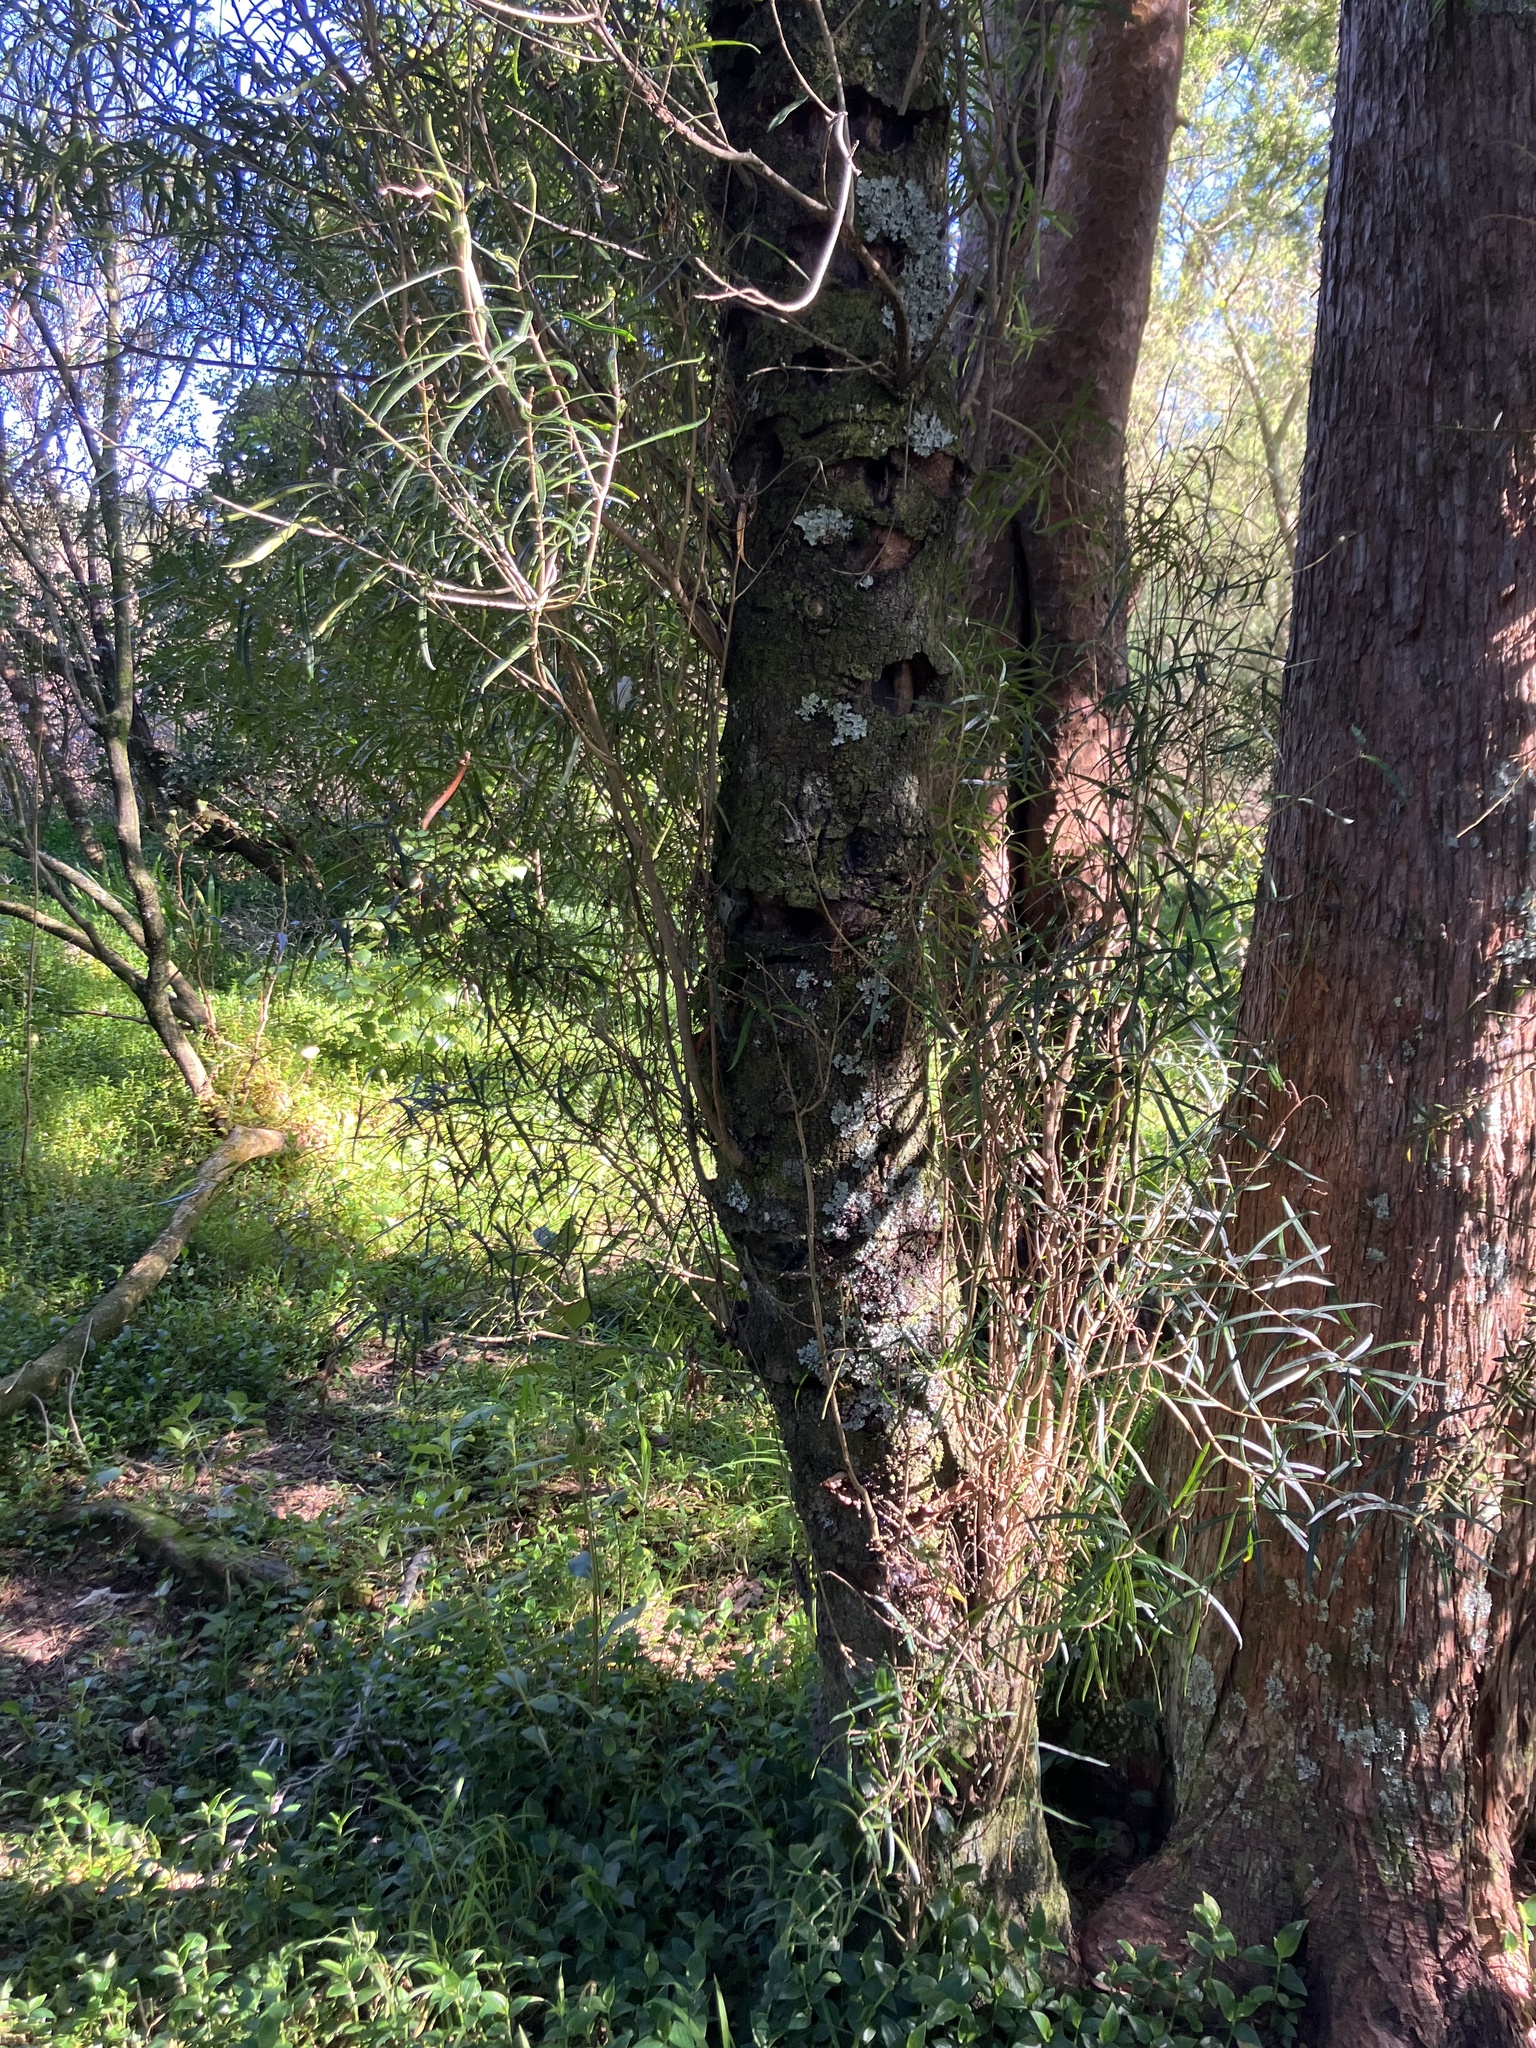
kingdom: Plantae
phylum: Tracheophyta
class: Magnoliopsida
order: Lamiales
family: Oleaceae
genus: Nestegis
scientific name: Nestegis lanceolata
